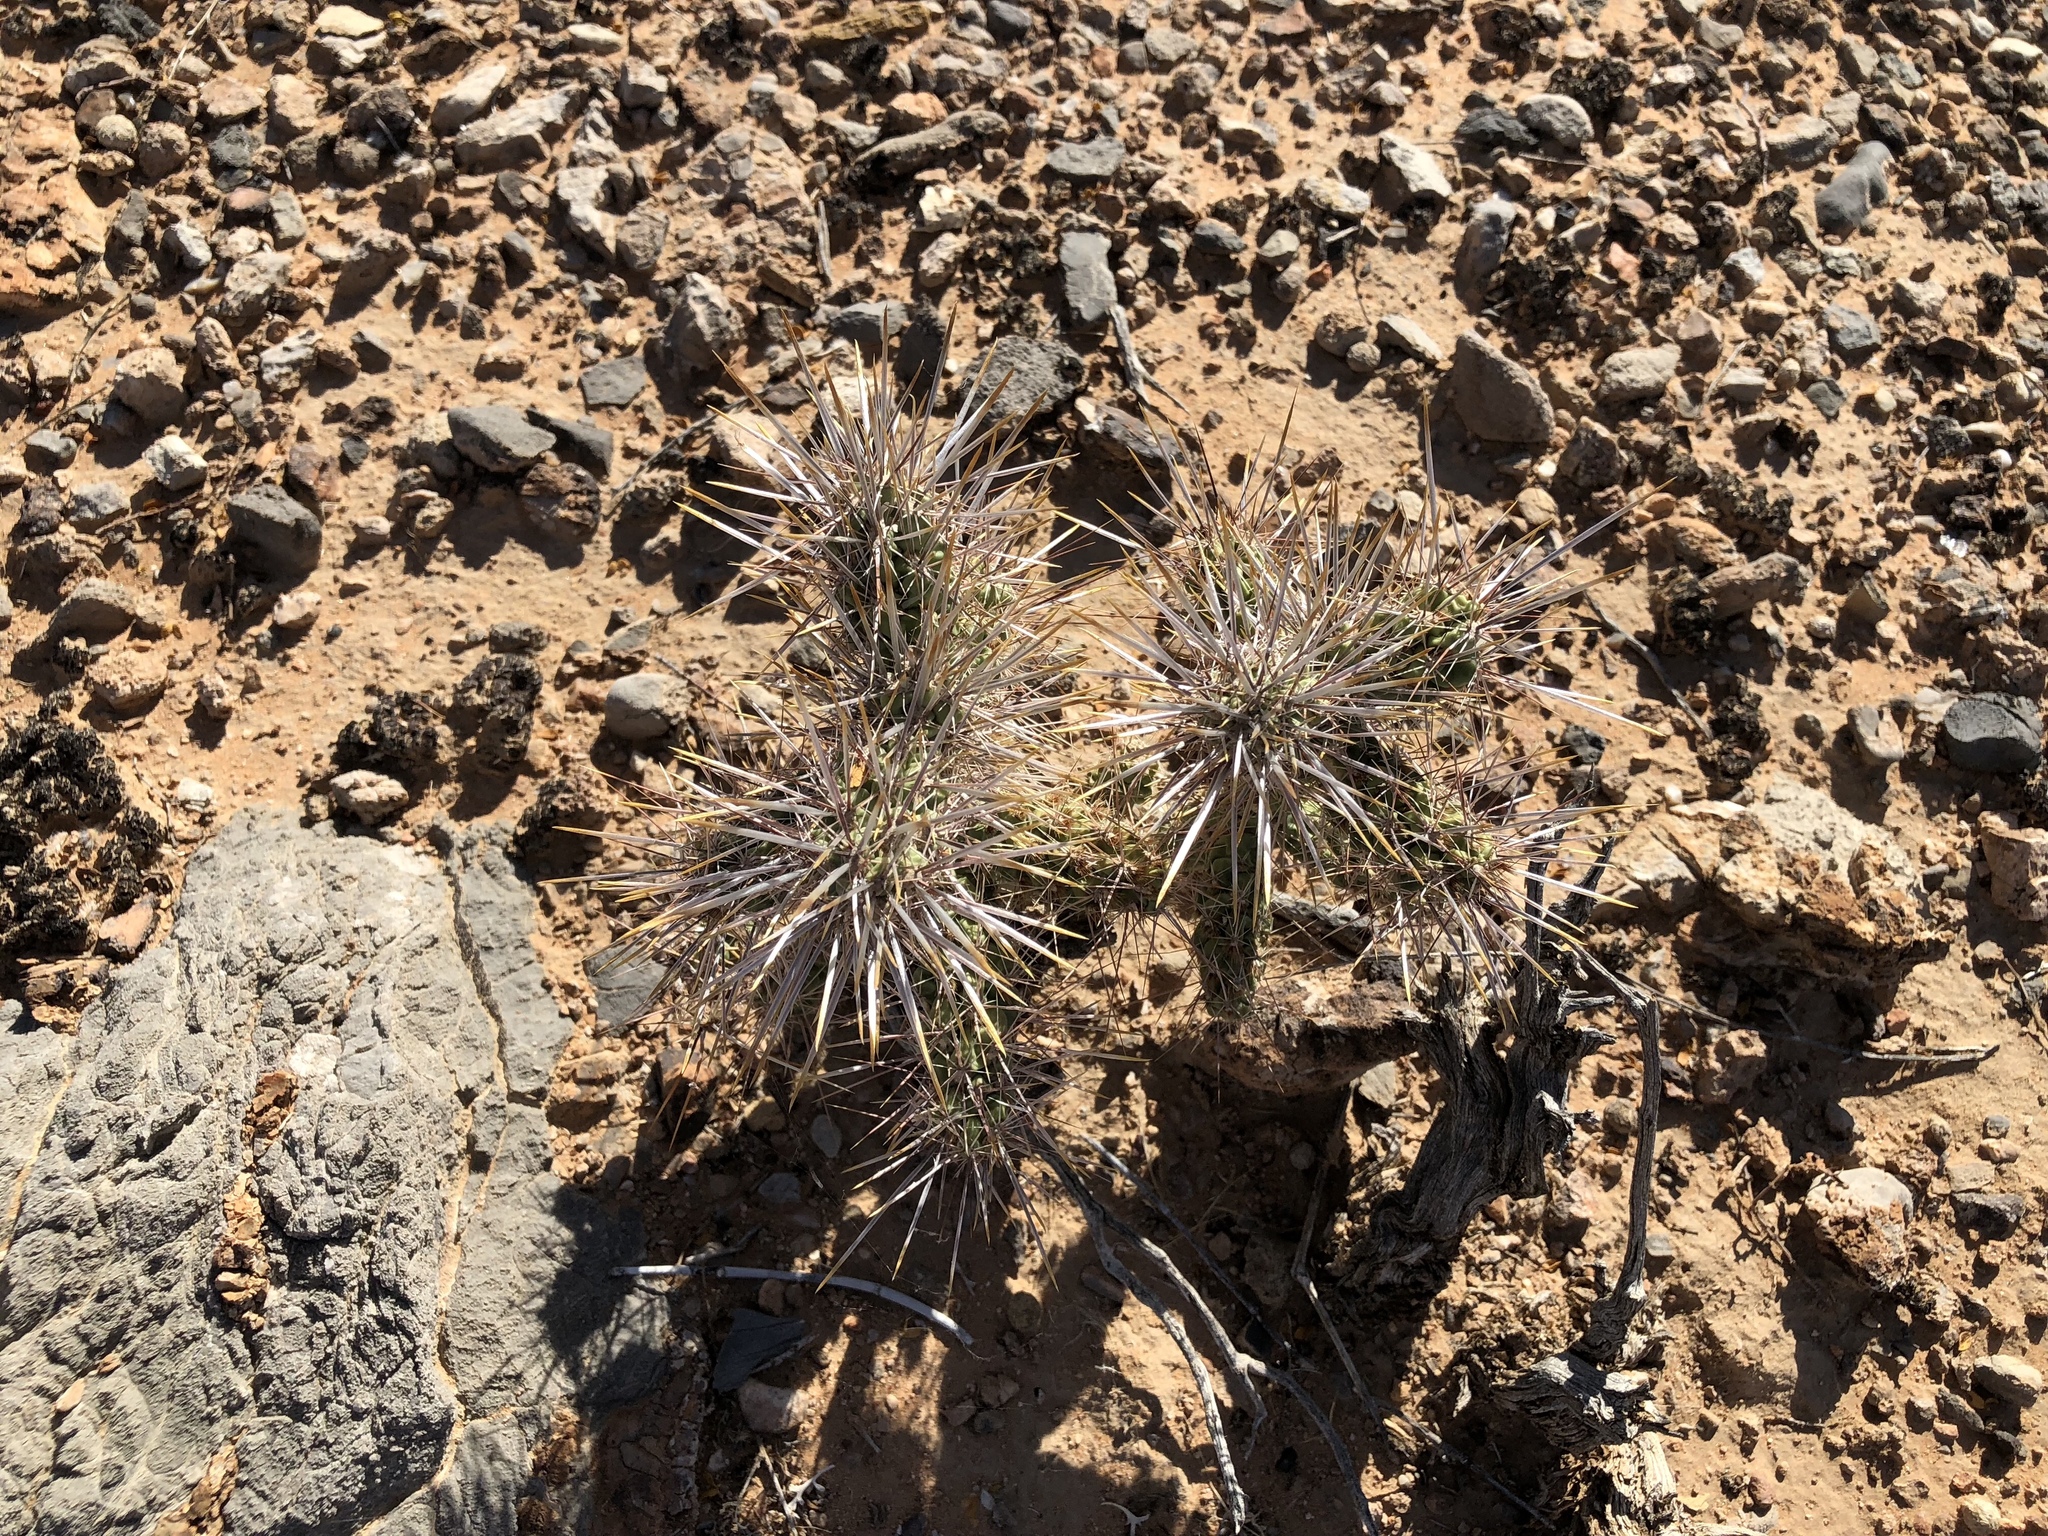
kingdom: Plantae
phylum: Tracheophyta
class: Magnoliopsida
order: Caryophyllales
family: Cactaceae
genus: Cylindropuntia
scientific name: Cylindropuntia echinocarpa
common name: Ground cholla
